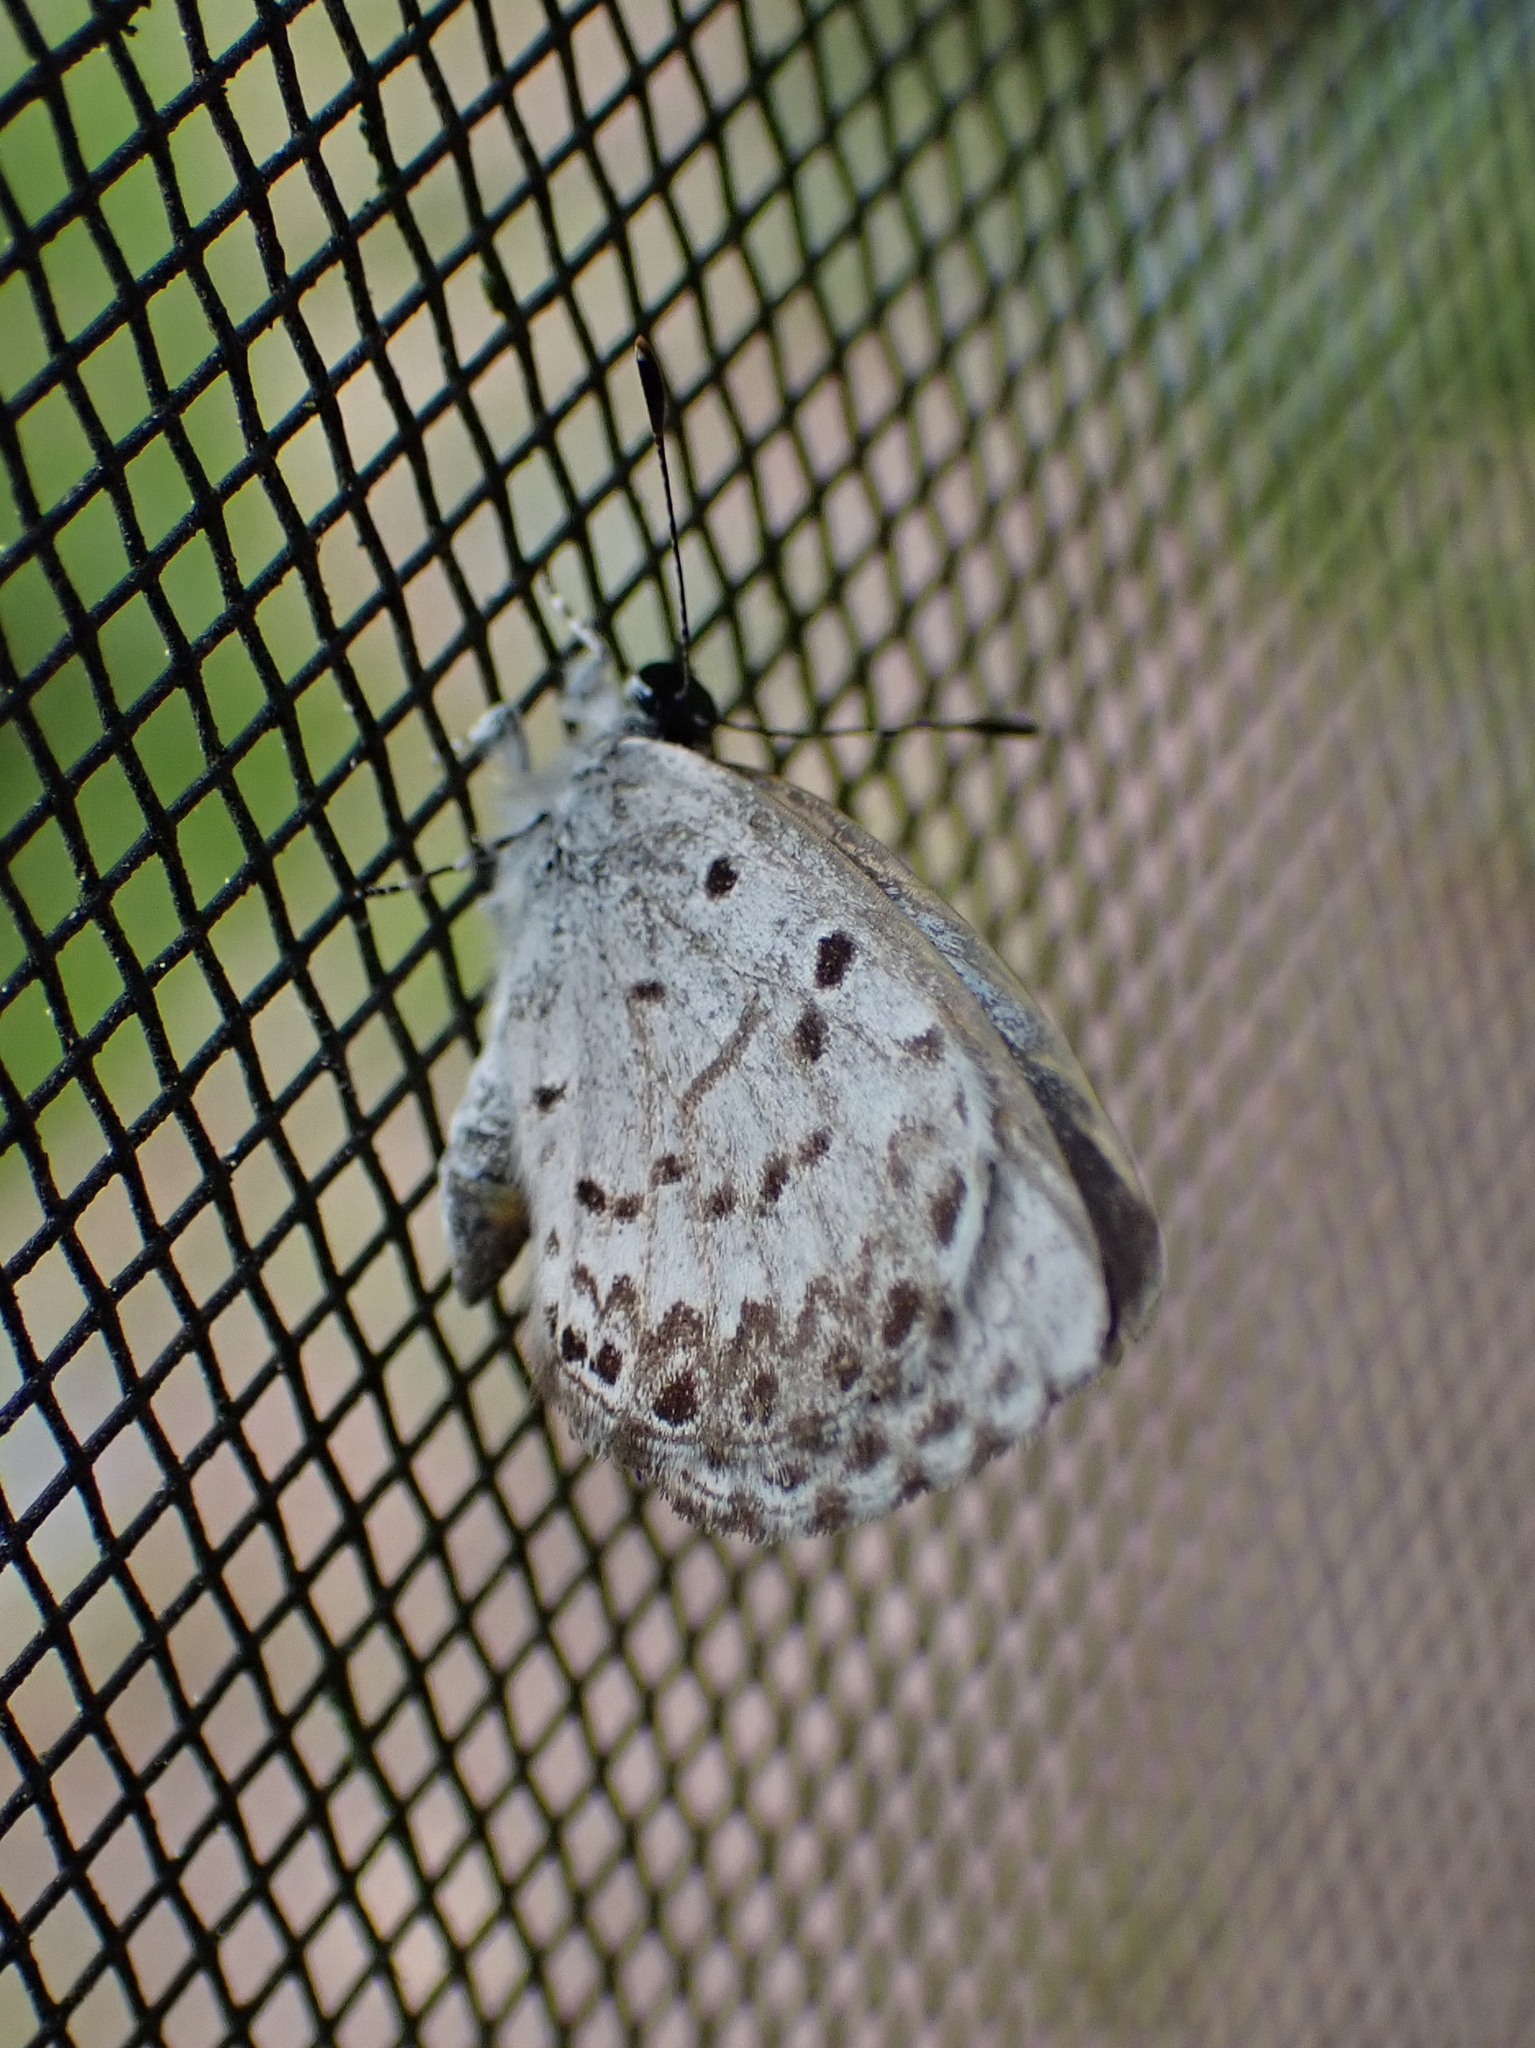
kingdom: Animalia
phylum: Arthropoda
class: Insecta
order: Lepidoptera
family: Lycaenidae
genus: Celastrina
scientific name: Celastrina lucia
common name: Lucia azure
